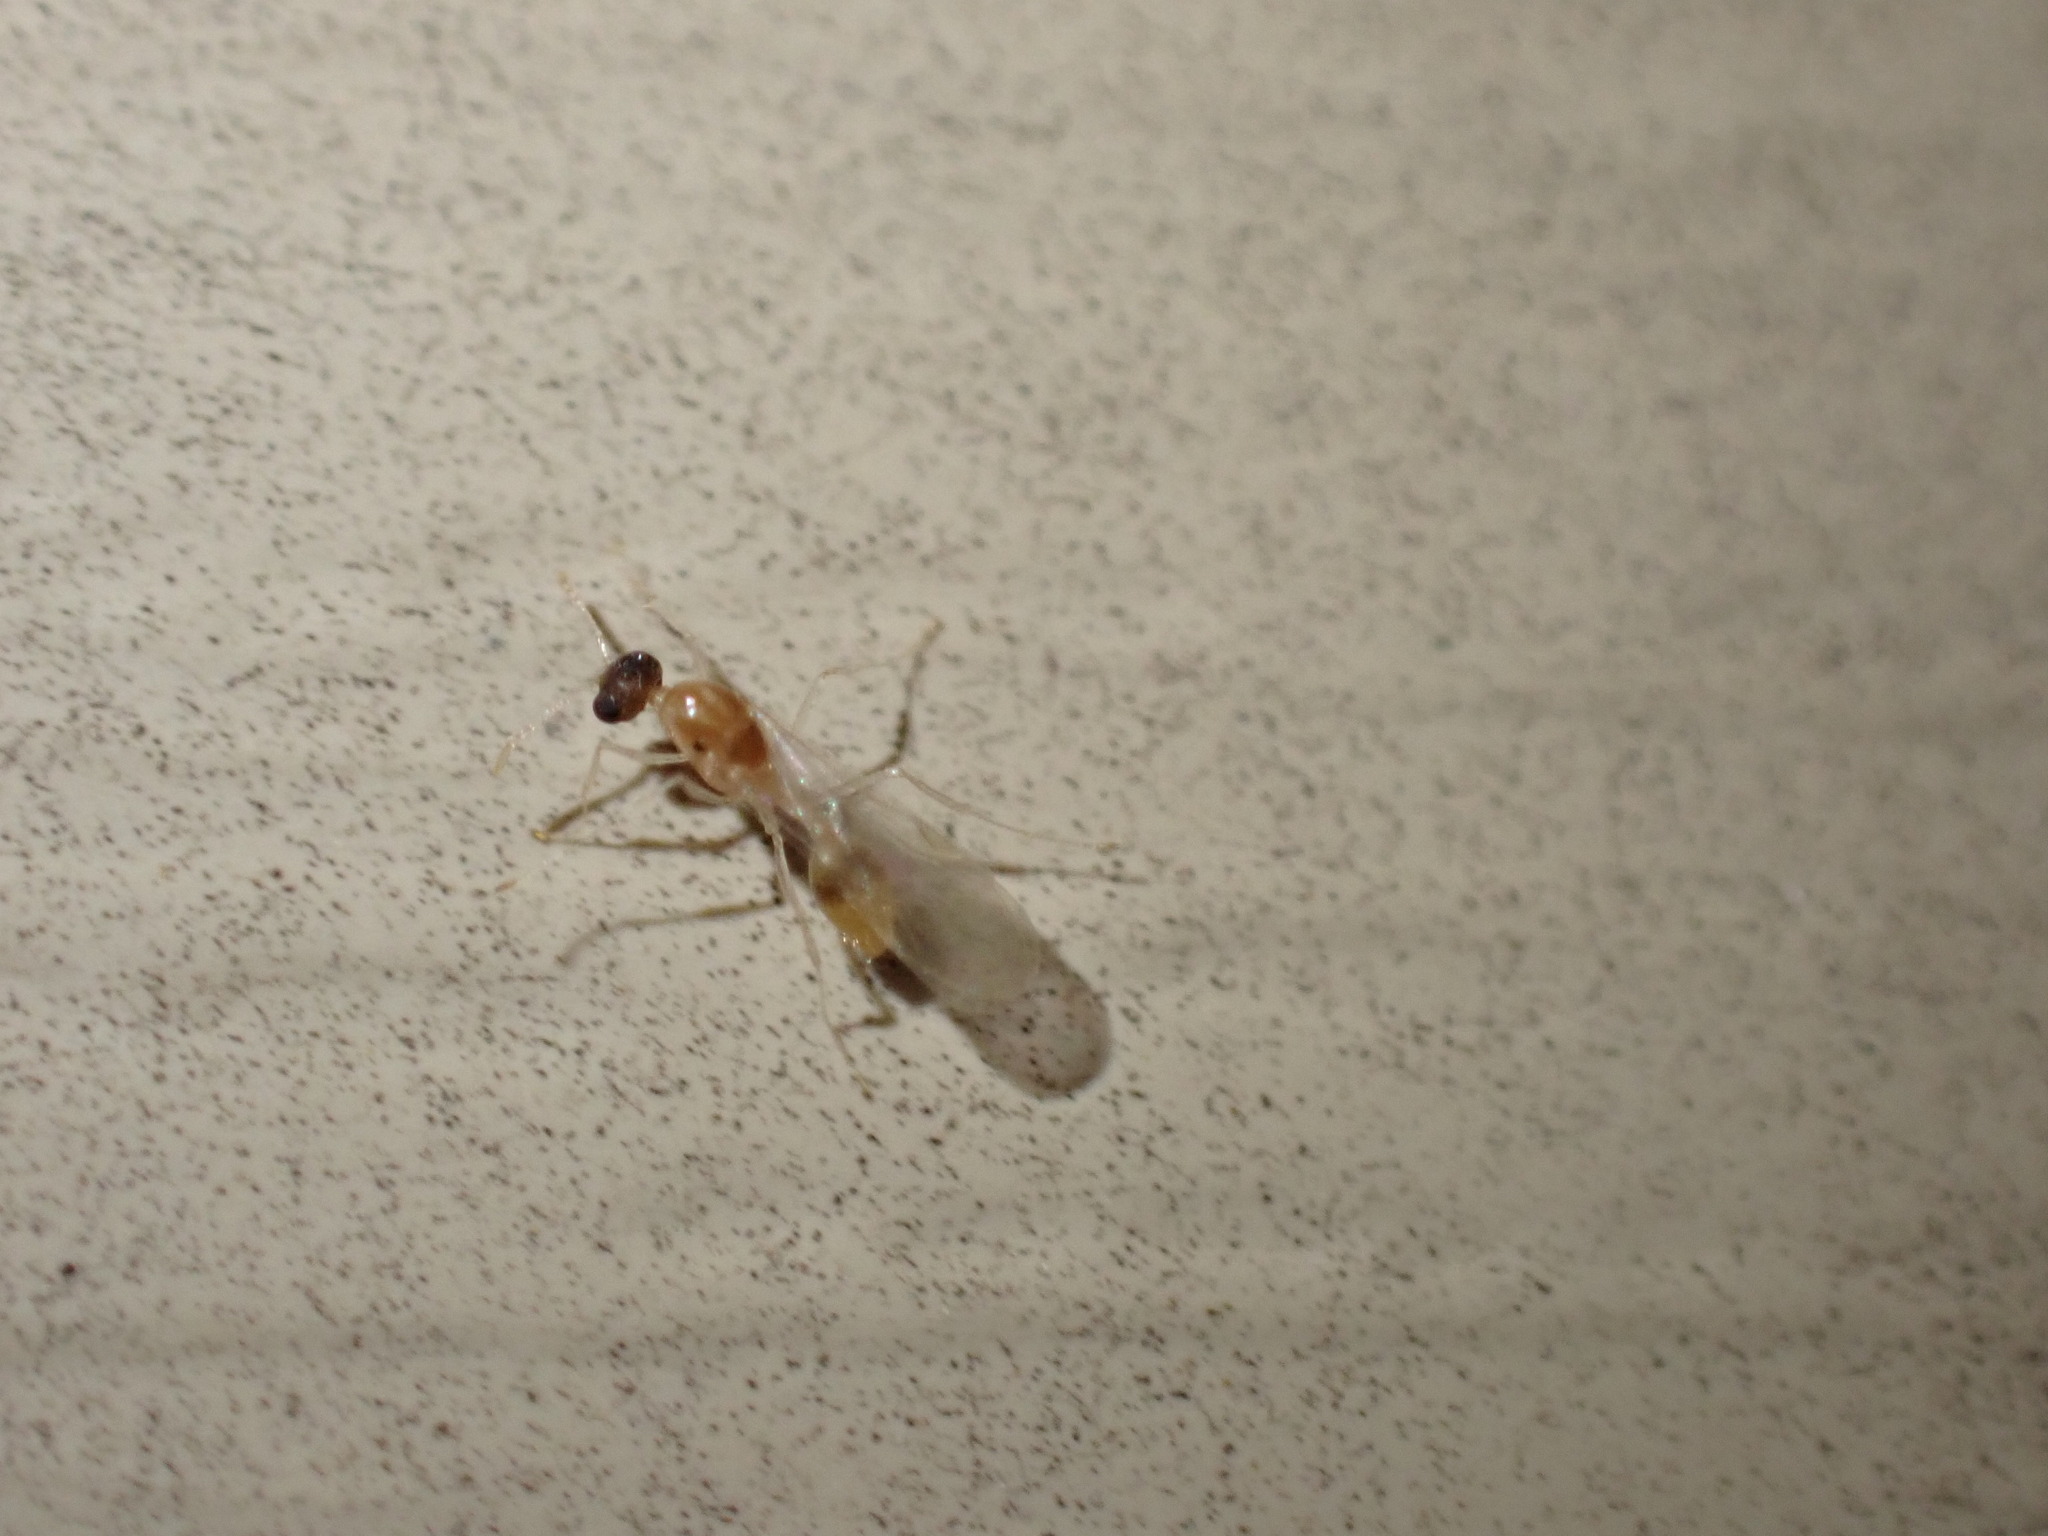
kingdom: Animalia
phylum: Arthropoda
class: Insecta
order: Hymenoptera
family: Formicidae
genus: Temnothorax
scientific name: Temnothorax
